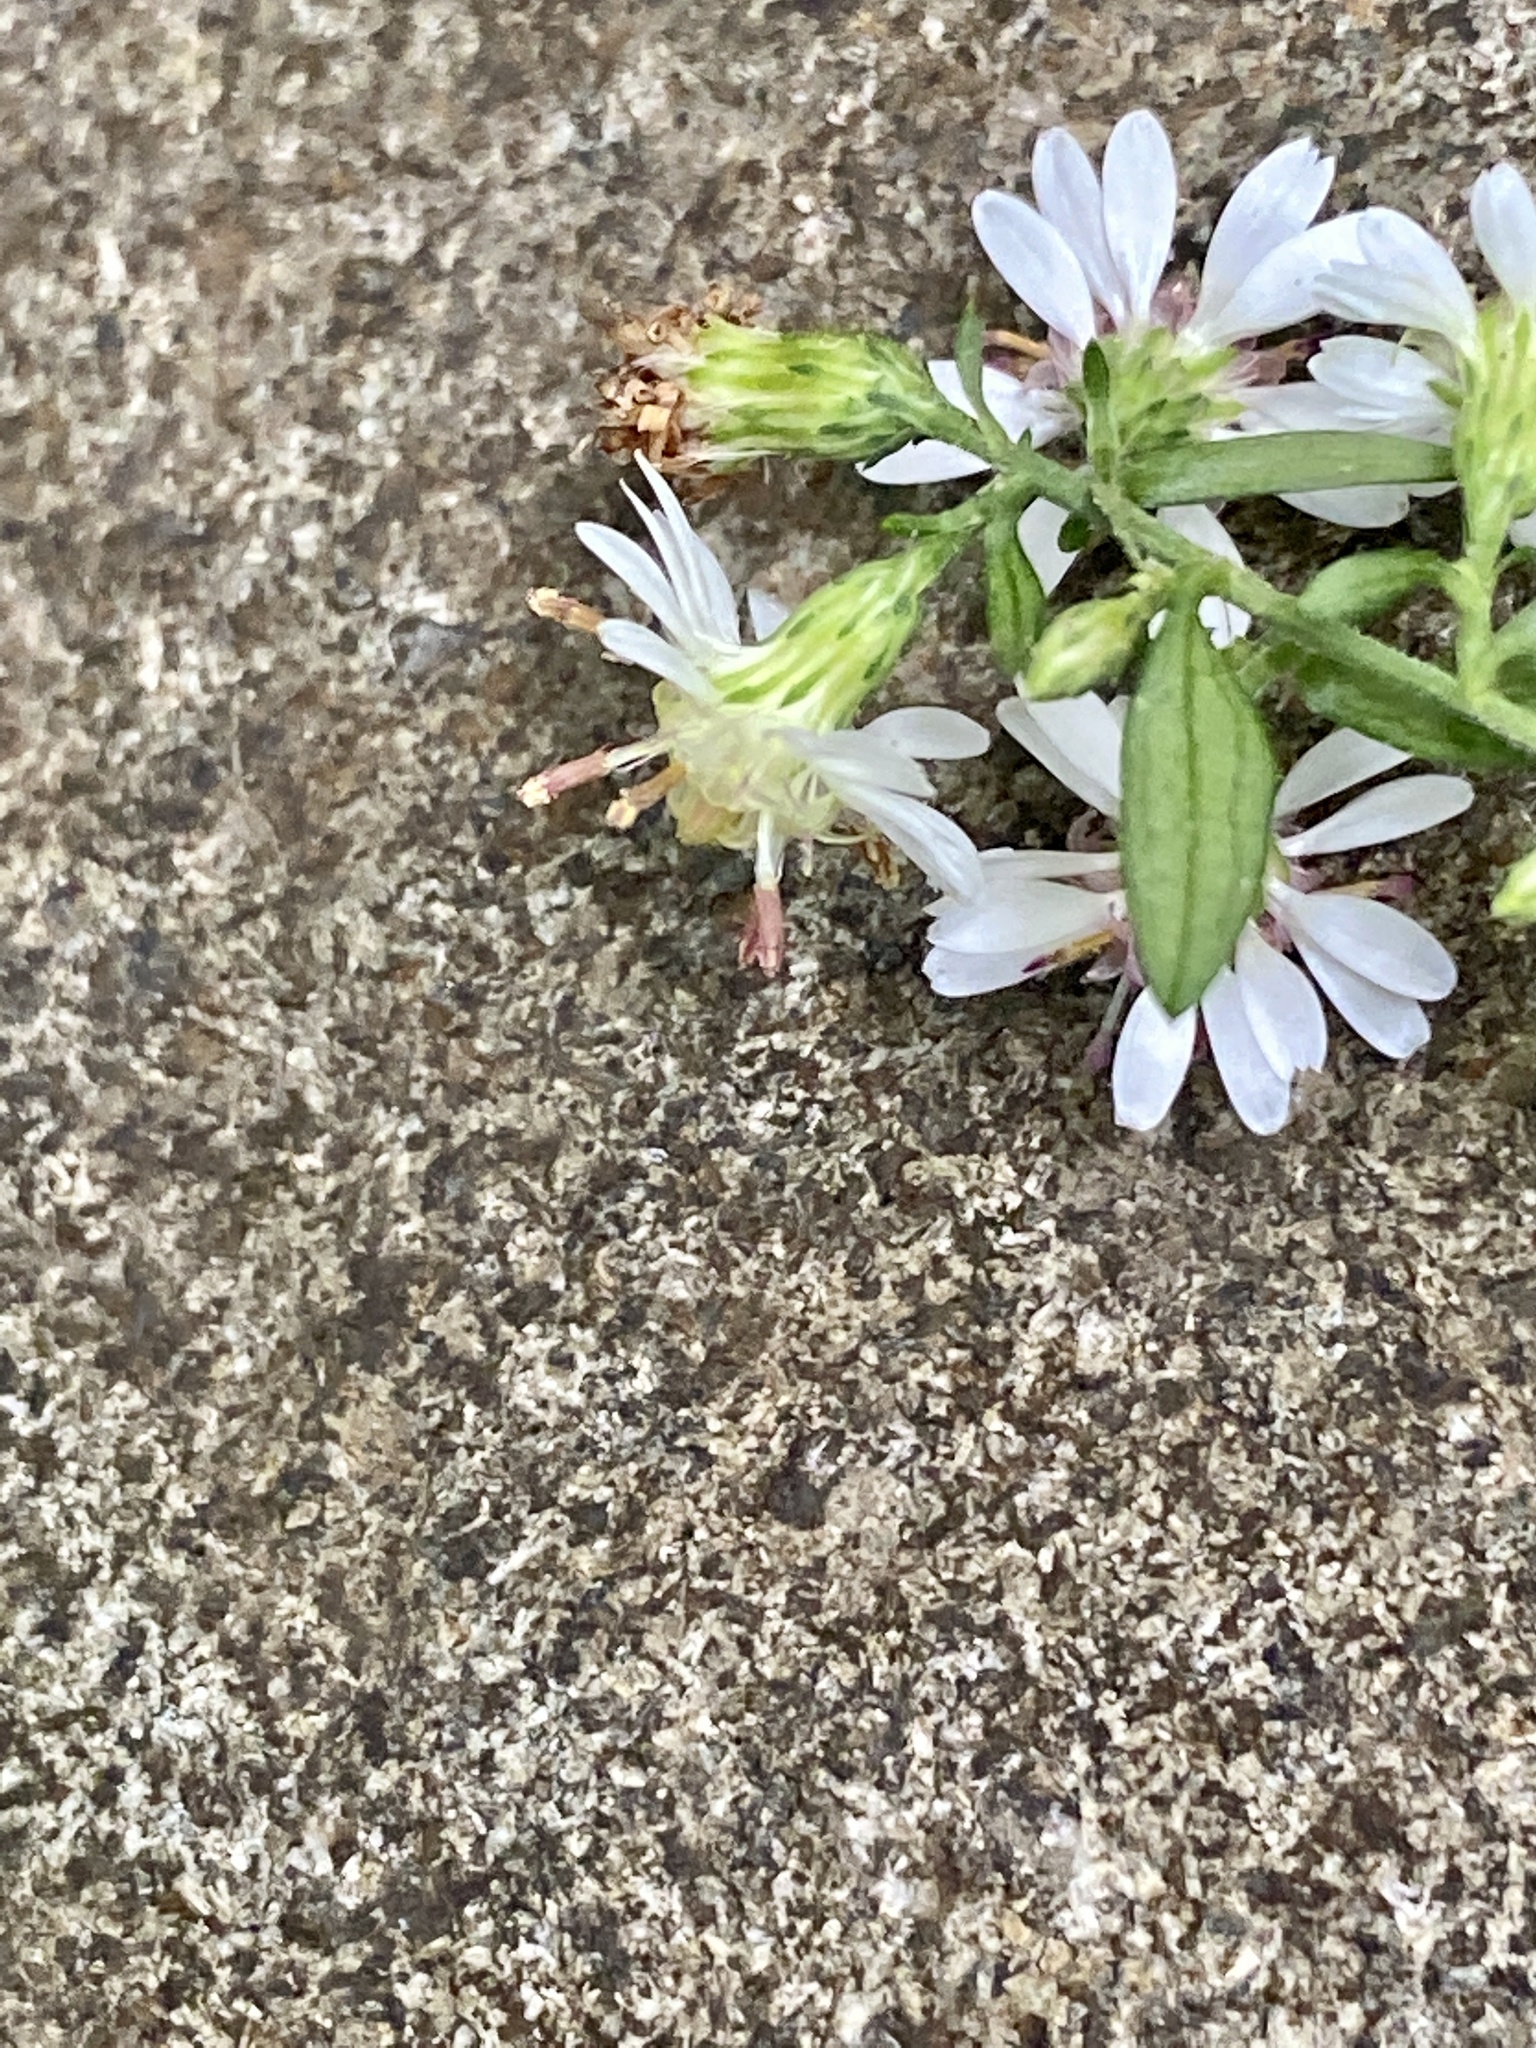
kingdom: Plantae
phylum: Tracheophyta
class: Magnoliopsida
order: Asterales
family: Asteraceae
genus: Symphyotrichum
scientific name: Symphyotrichum lateriflorum
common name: Calico aster
